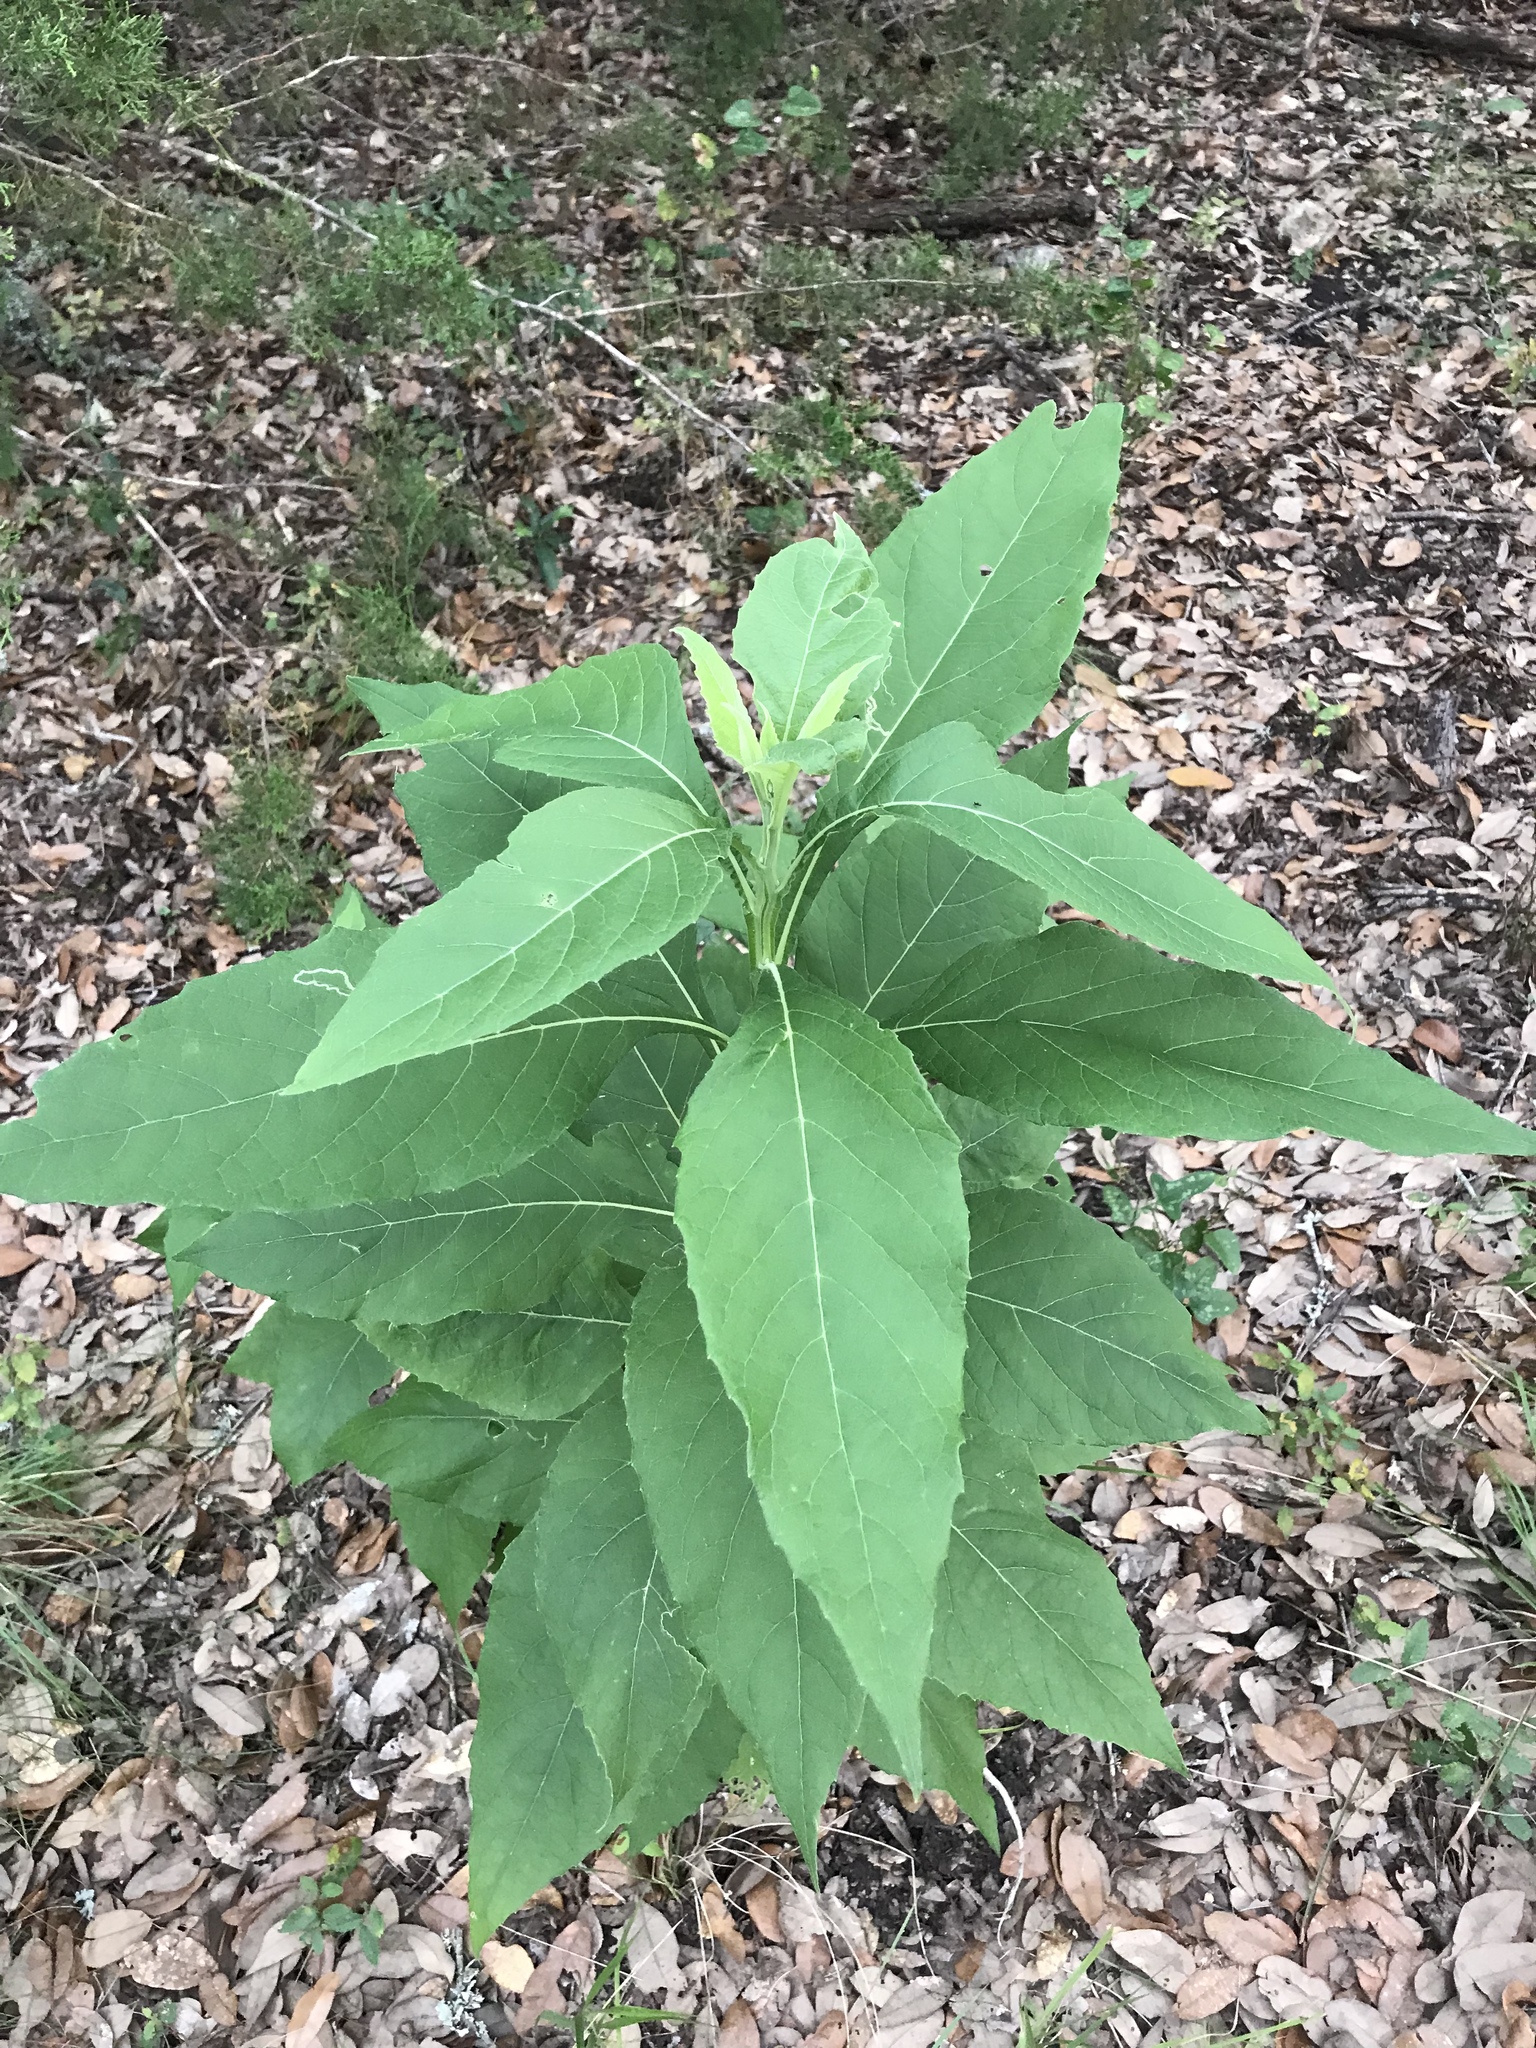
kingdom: Plantae
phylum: Tracheophyta
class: Magnoliopsida
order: Asterales
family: Asteraceae
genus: Verbesina
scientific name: Verbesina virginica
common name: Frostweed
